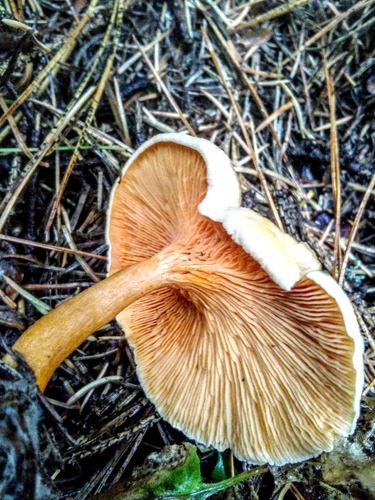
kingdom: Fungi
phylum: Basidiomycota
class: Agaricomycetes
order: Boletales
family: Hygrophoropsidaceae
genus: Hygrophoropsis
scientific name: Hygrophoropsis aurantiaca
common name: False chanterelle
